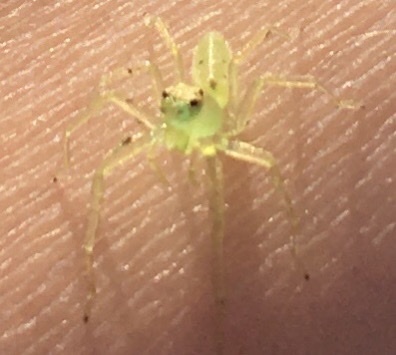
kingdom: Animalia
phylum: Arthropoda
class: Arachnida
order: Araneae
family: Salticidae
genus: Lyssomanes
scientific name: Lyssomanes viridis
